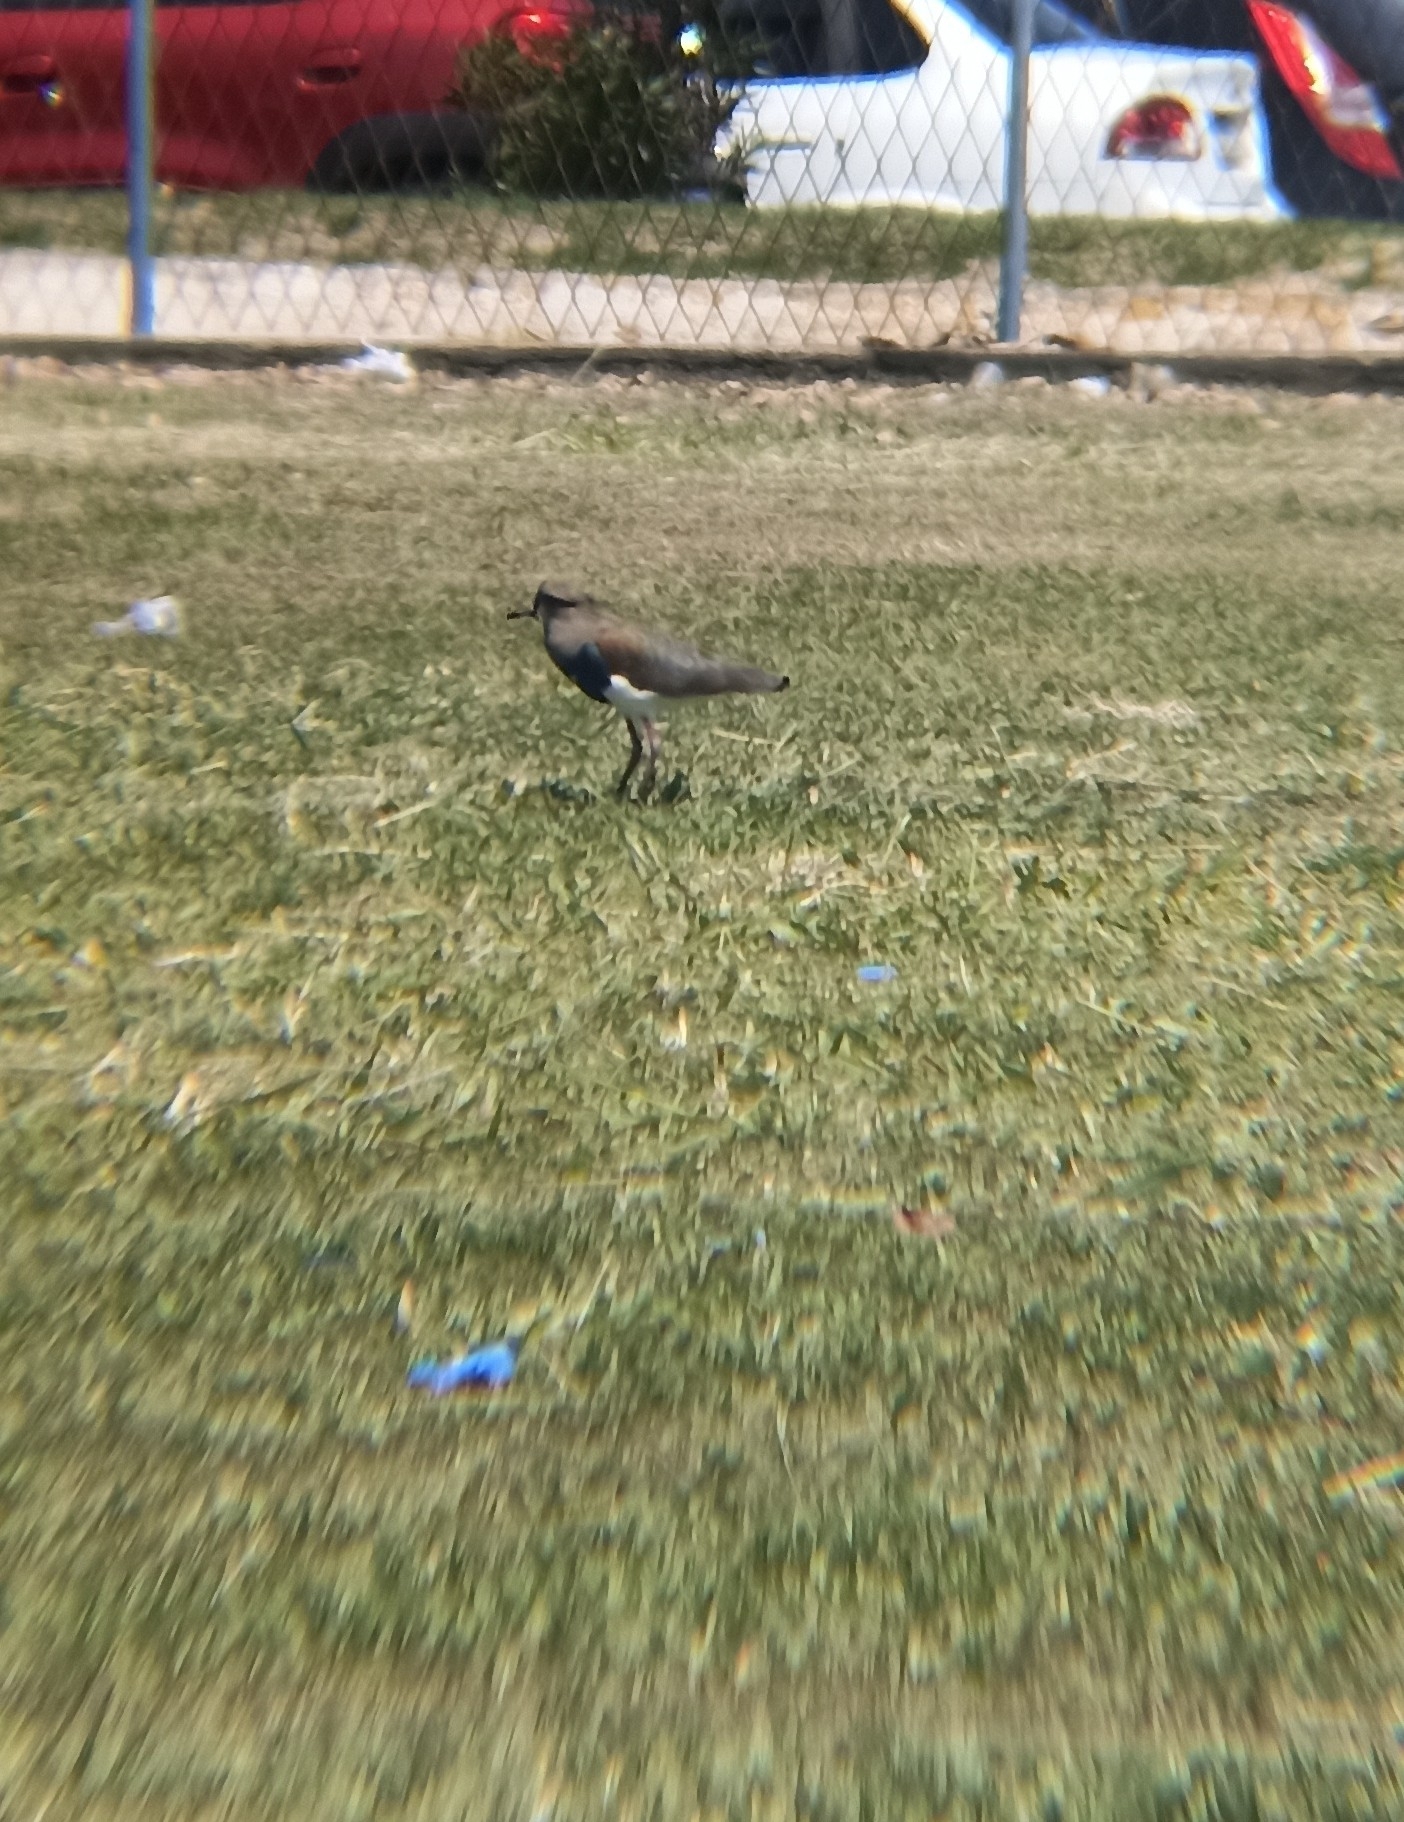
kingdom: Animalia
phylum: Chordata
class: Aves
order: Charadriiformes
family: Charadriidae
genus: Vanellus
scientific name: Vanellus chilensis
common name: Southern lapwing
